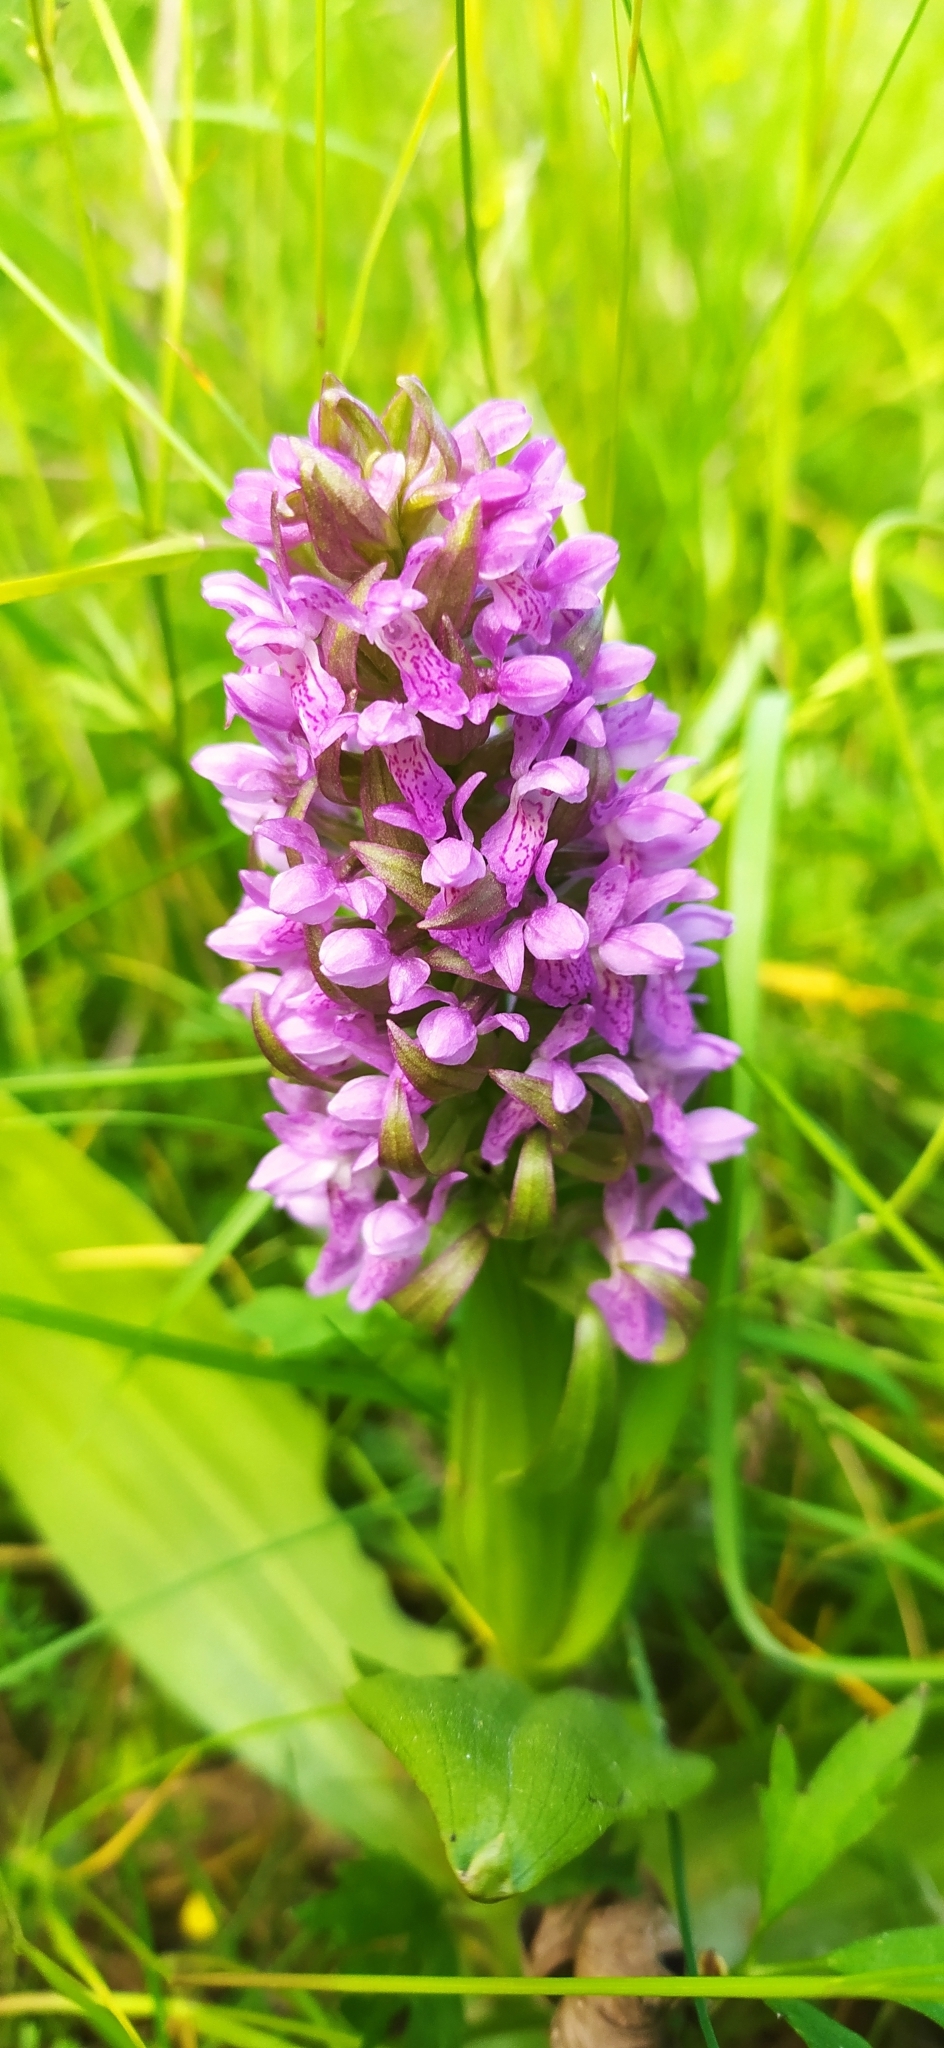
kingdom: Plantae
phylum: Tracheophyta
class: Liliopsida
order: Asparagales
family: Orchidaceae
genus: Dactylorhiza
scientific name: Dactylorhiza incarnata
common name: Early marsh-orchid
